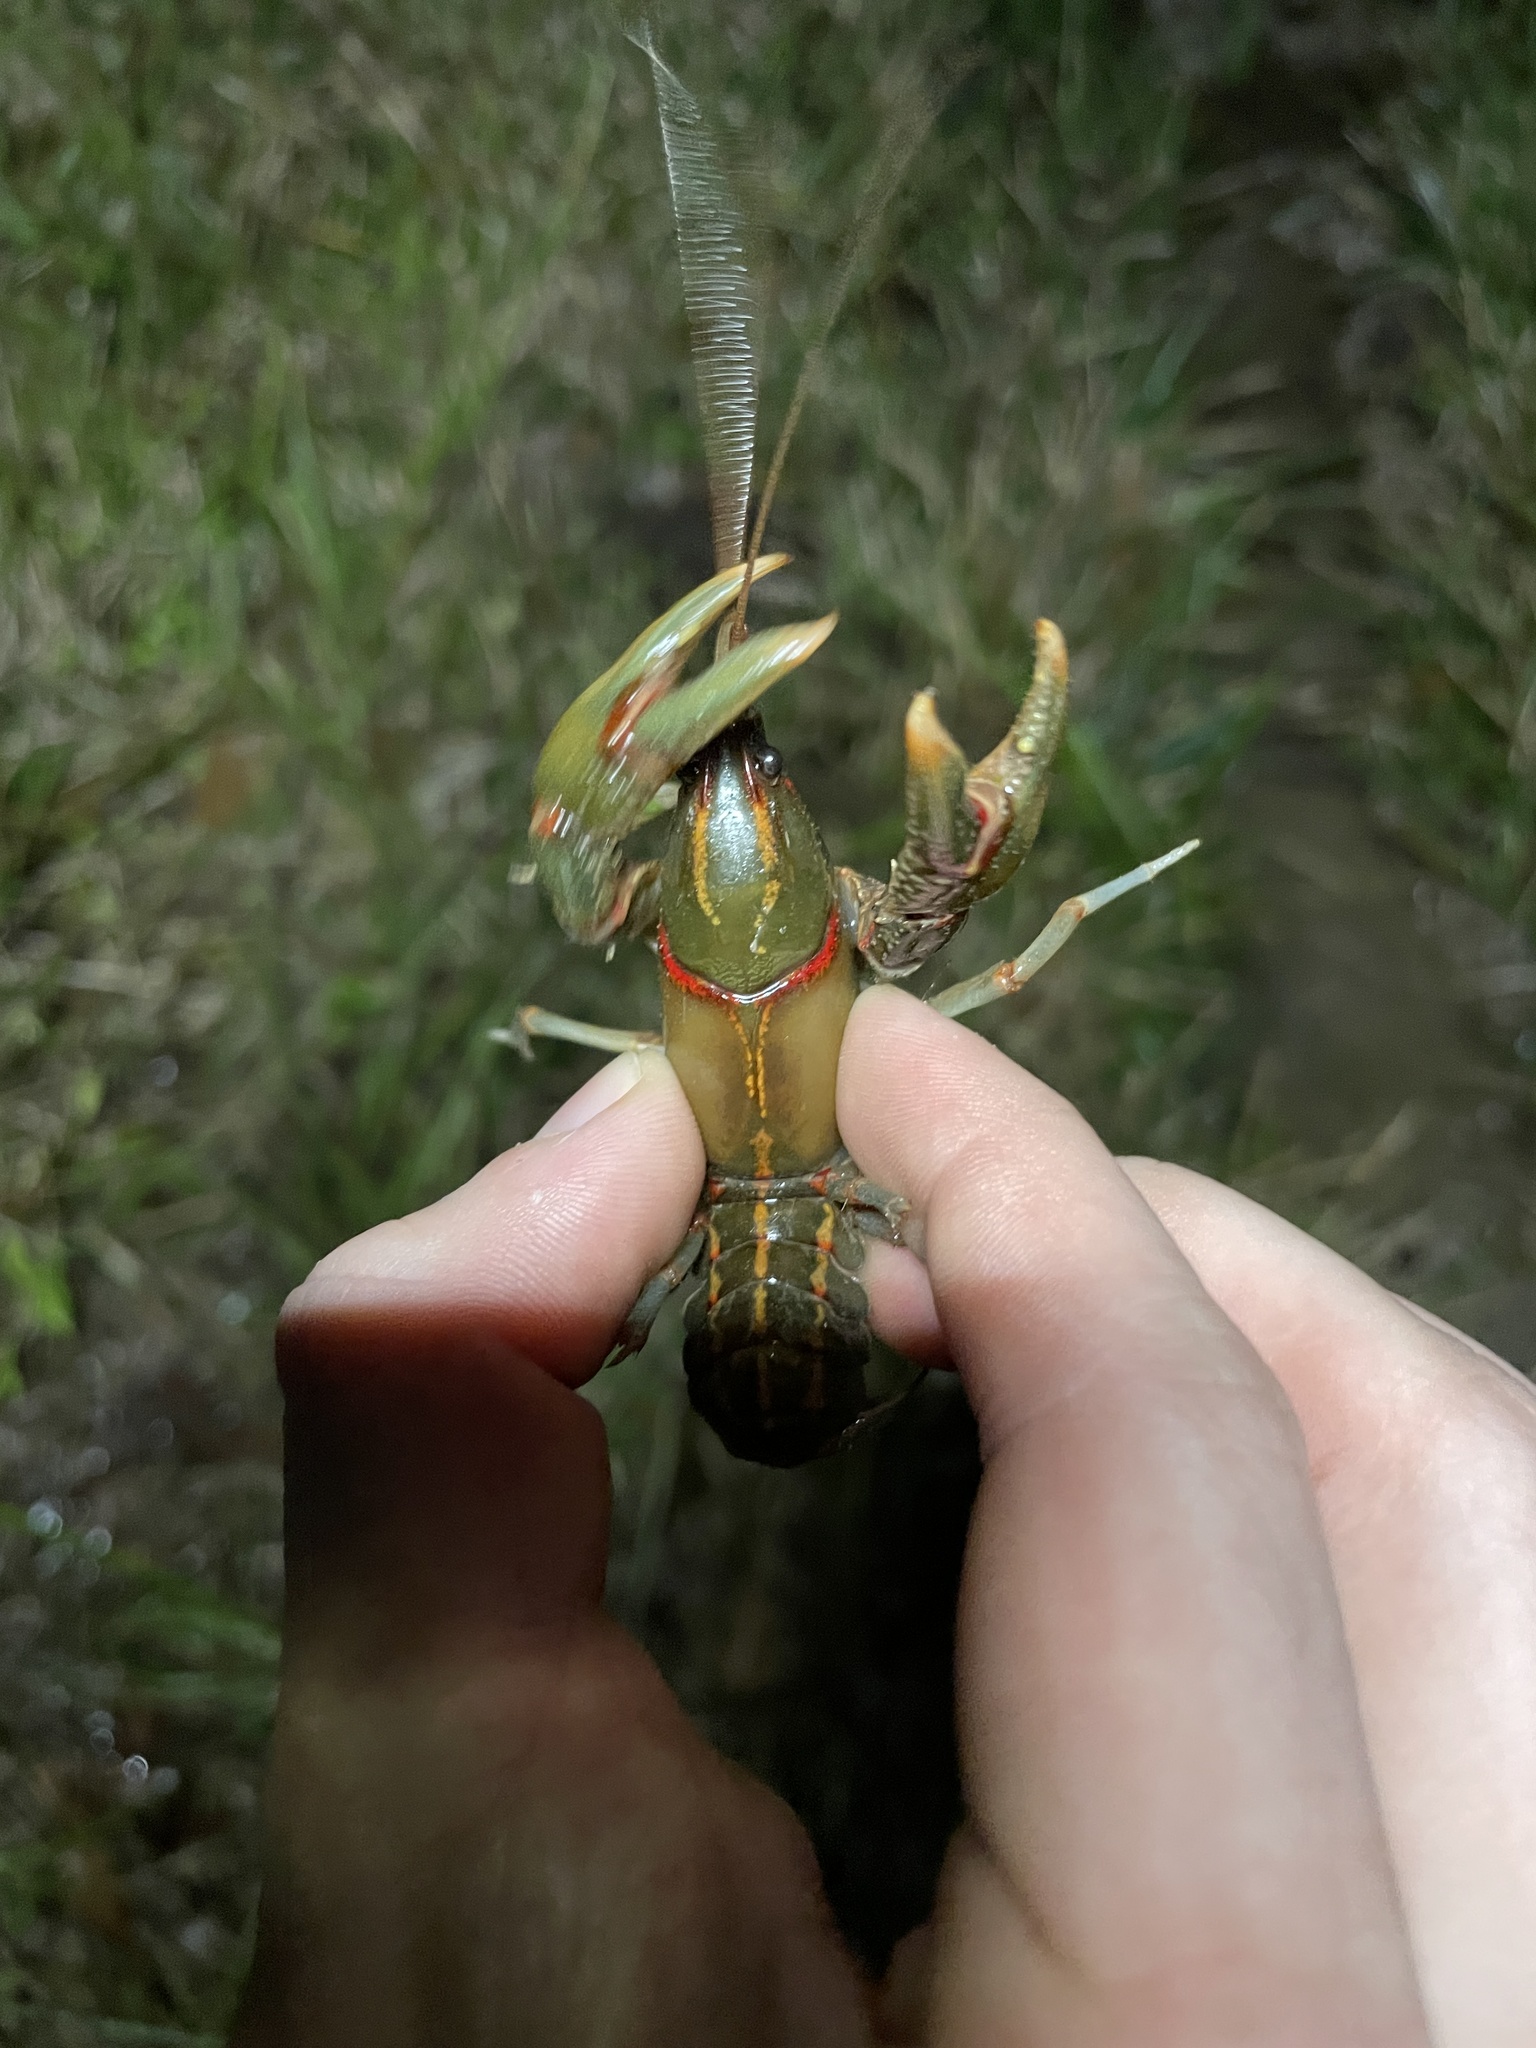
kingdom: Animalia
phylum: Arthropoda
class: Malacostraca
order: Decapoda
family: Cambaridae
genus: Lacunicambarus
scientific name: Lacunicambarus ludovicianus
